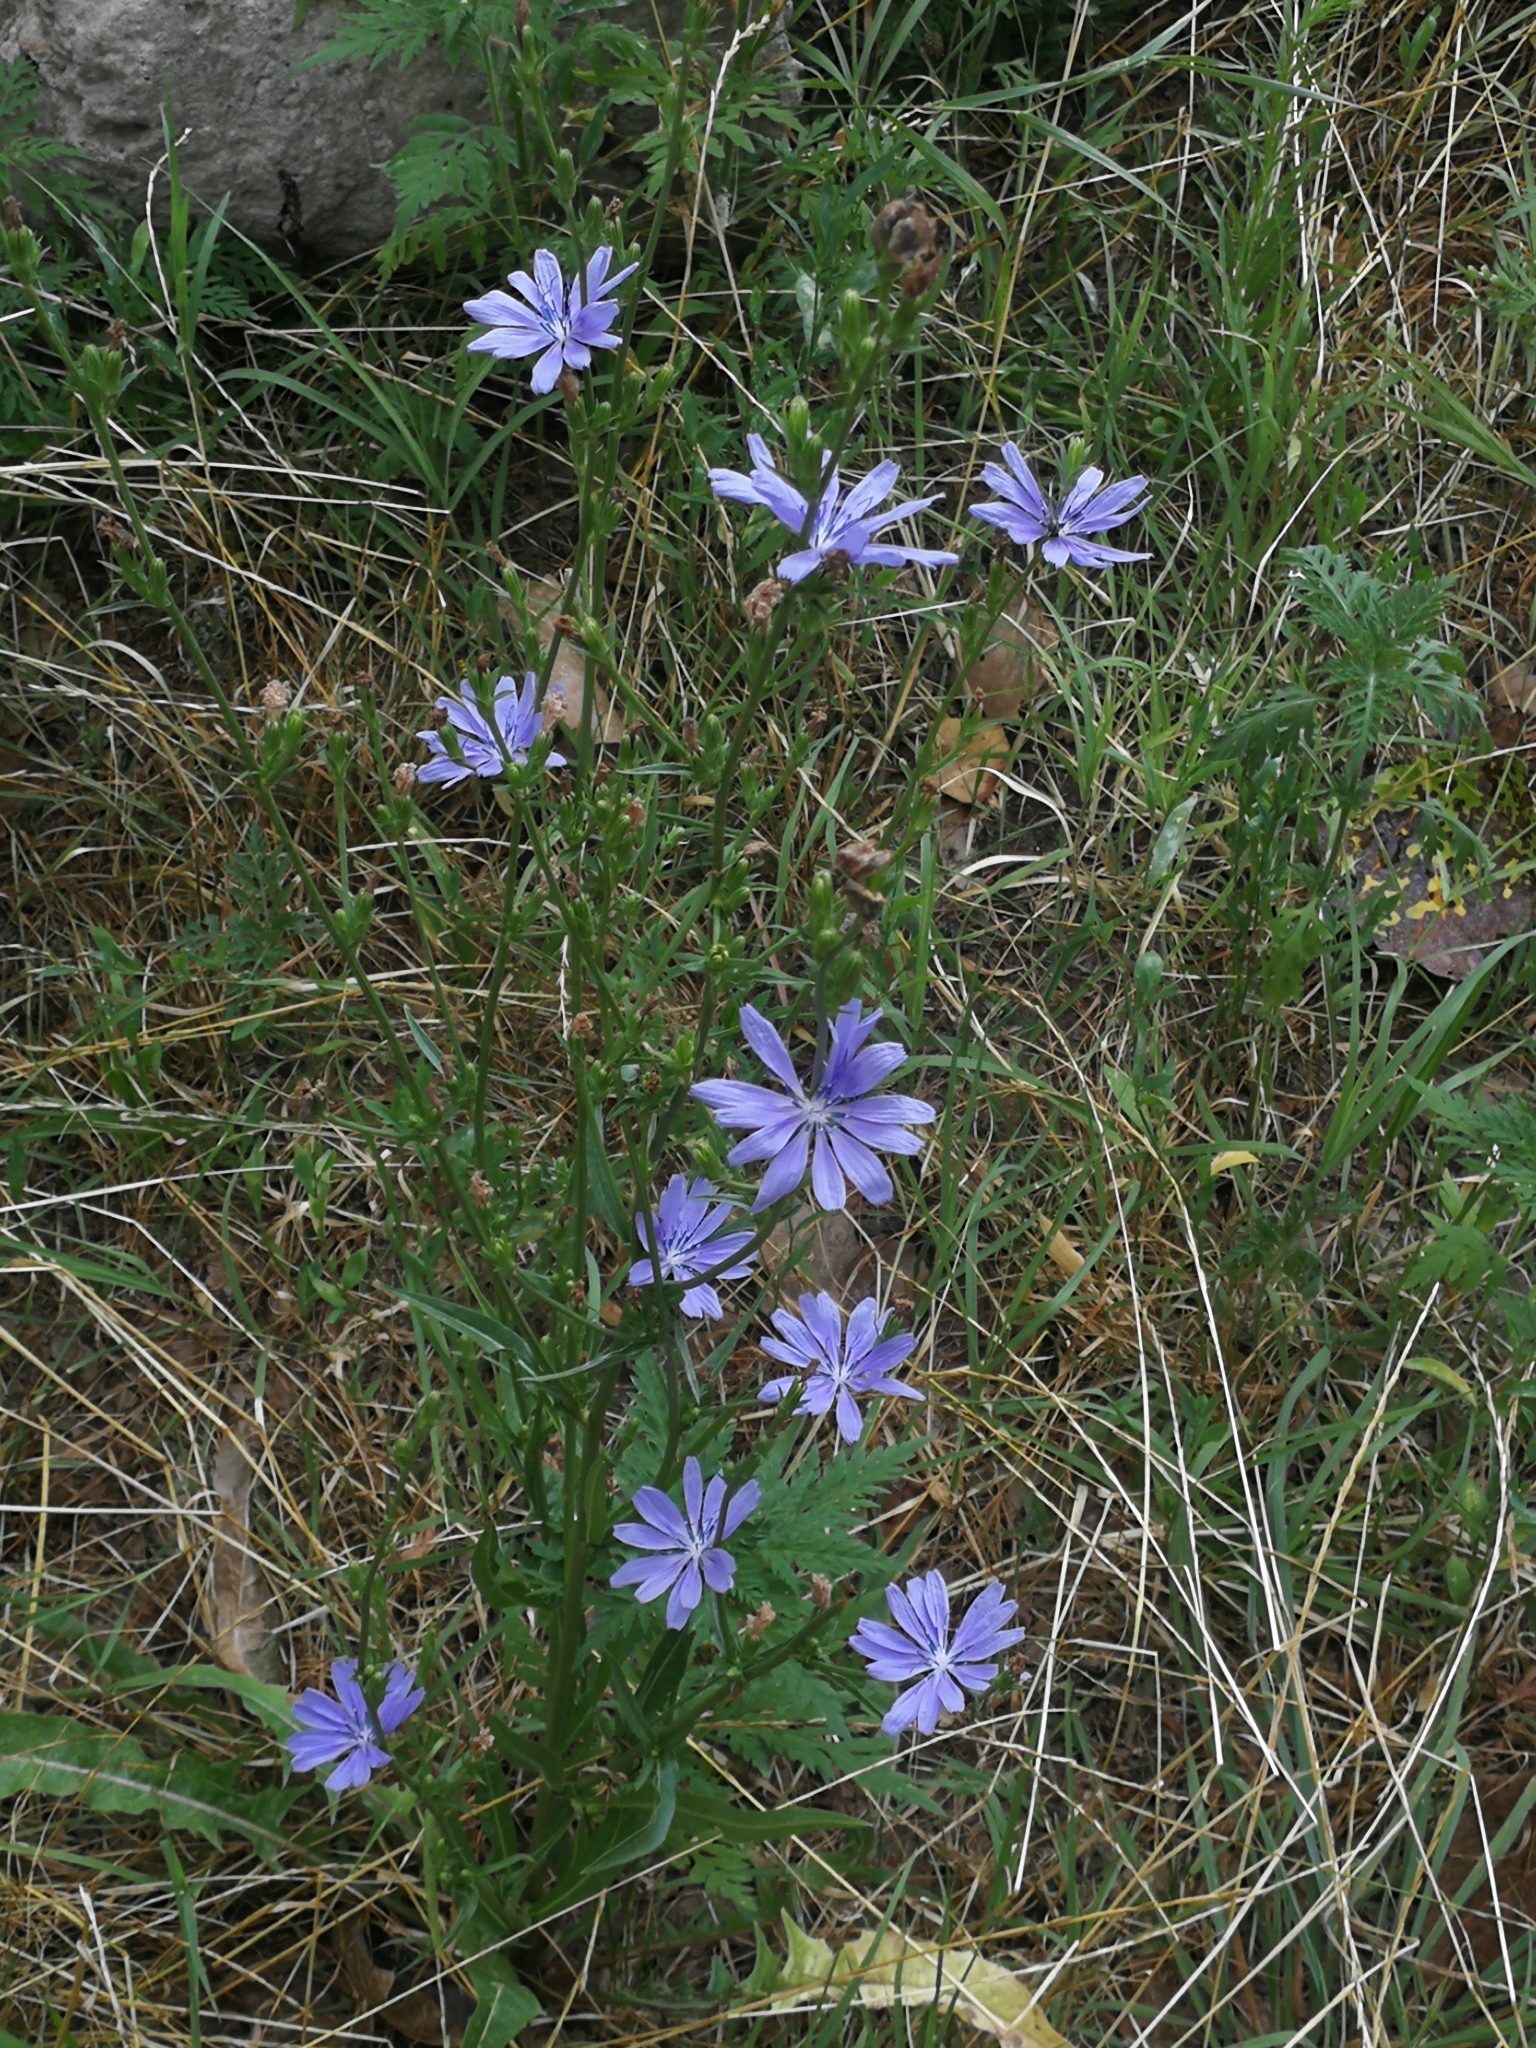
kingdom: Plantae
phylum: Tracheophyta
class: Magnoliopsida
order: Asterales
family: Asteraceae
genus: Cichorium
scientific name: Cichorium intybus
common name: Chicory
